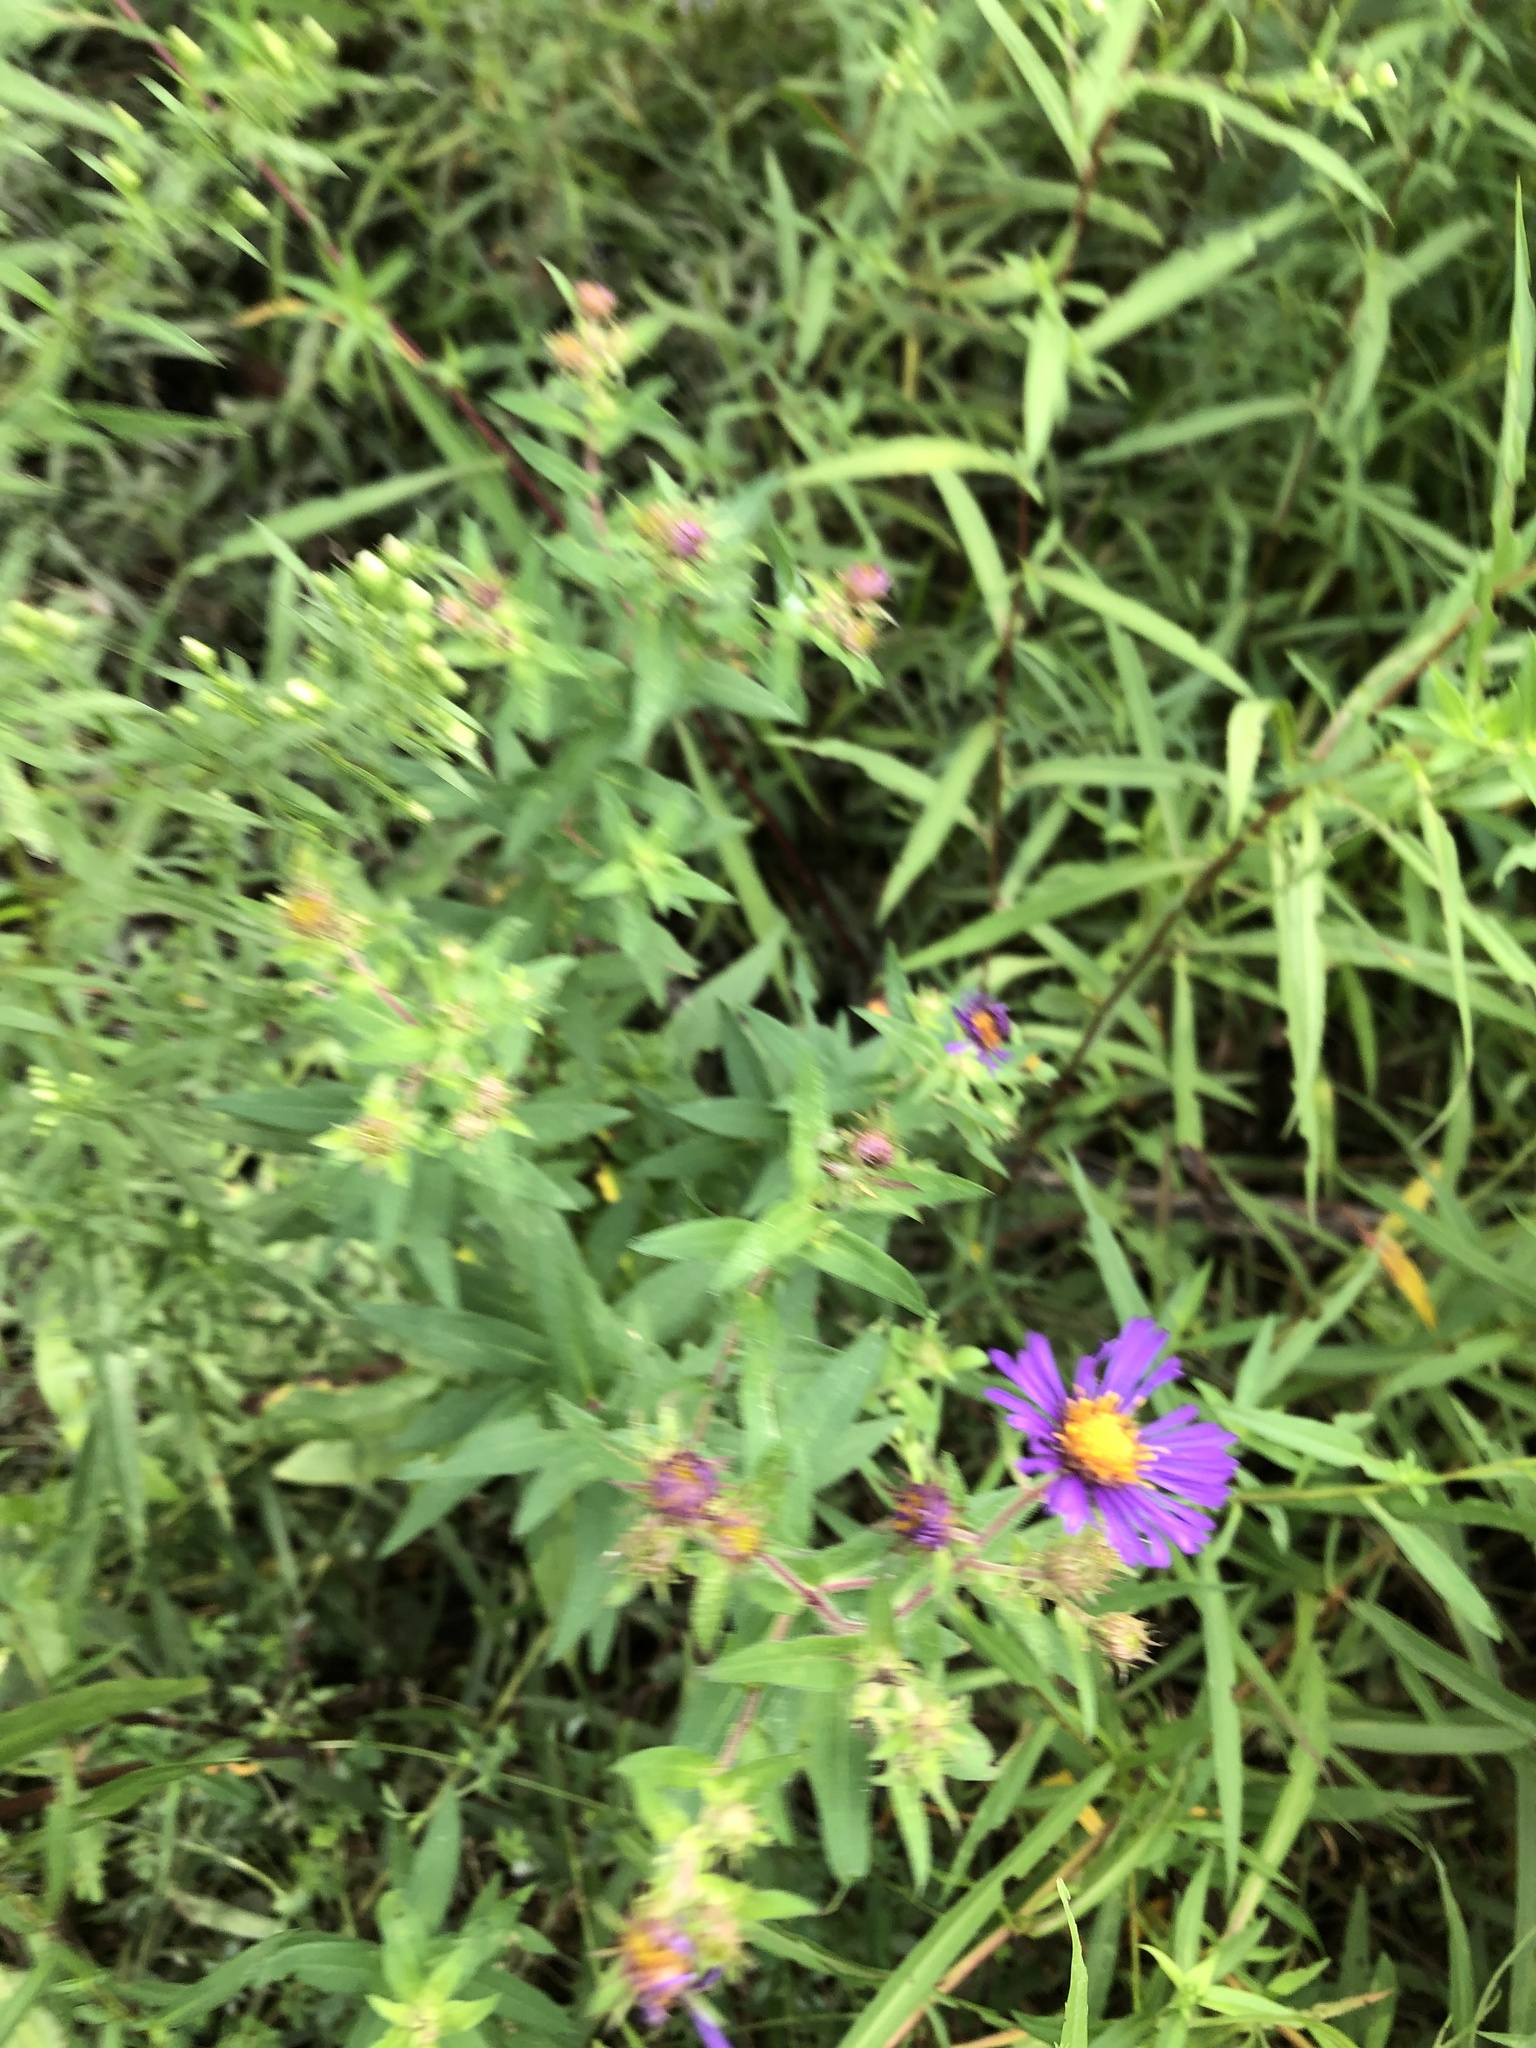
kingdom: Plantae
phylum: Tracheophyta
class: Magnoliopsida
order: Asterales
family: Asteraceae
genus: Symphyotrichum
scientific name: Symphyotrichum novae-angliae
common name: Michaelmas daisy
